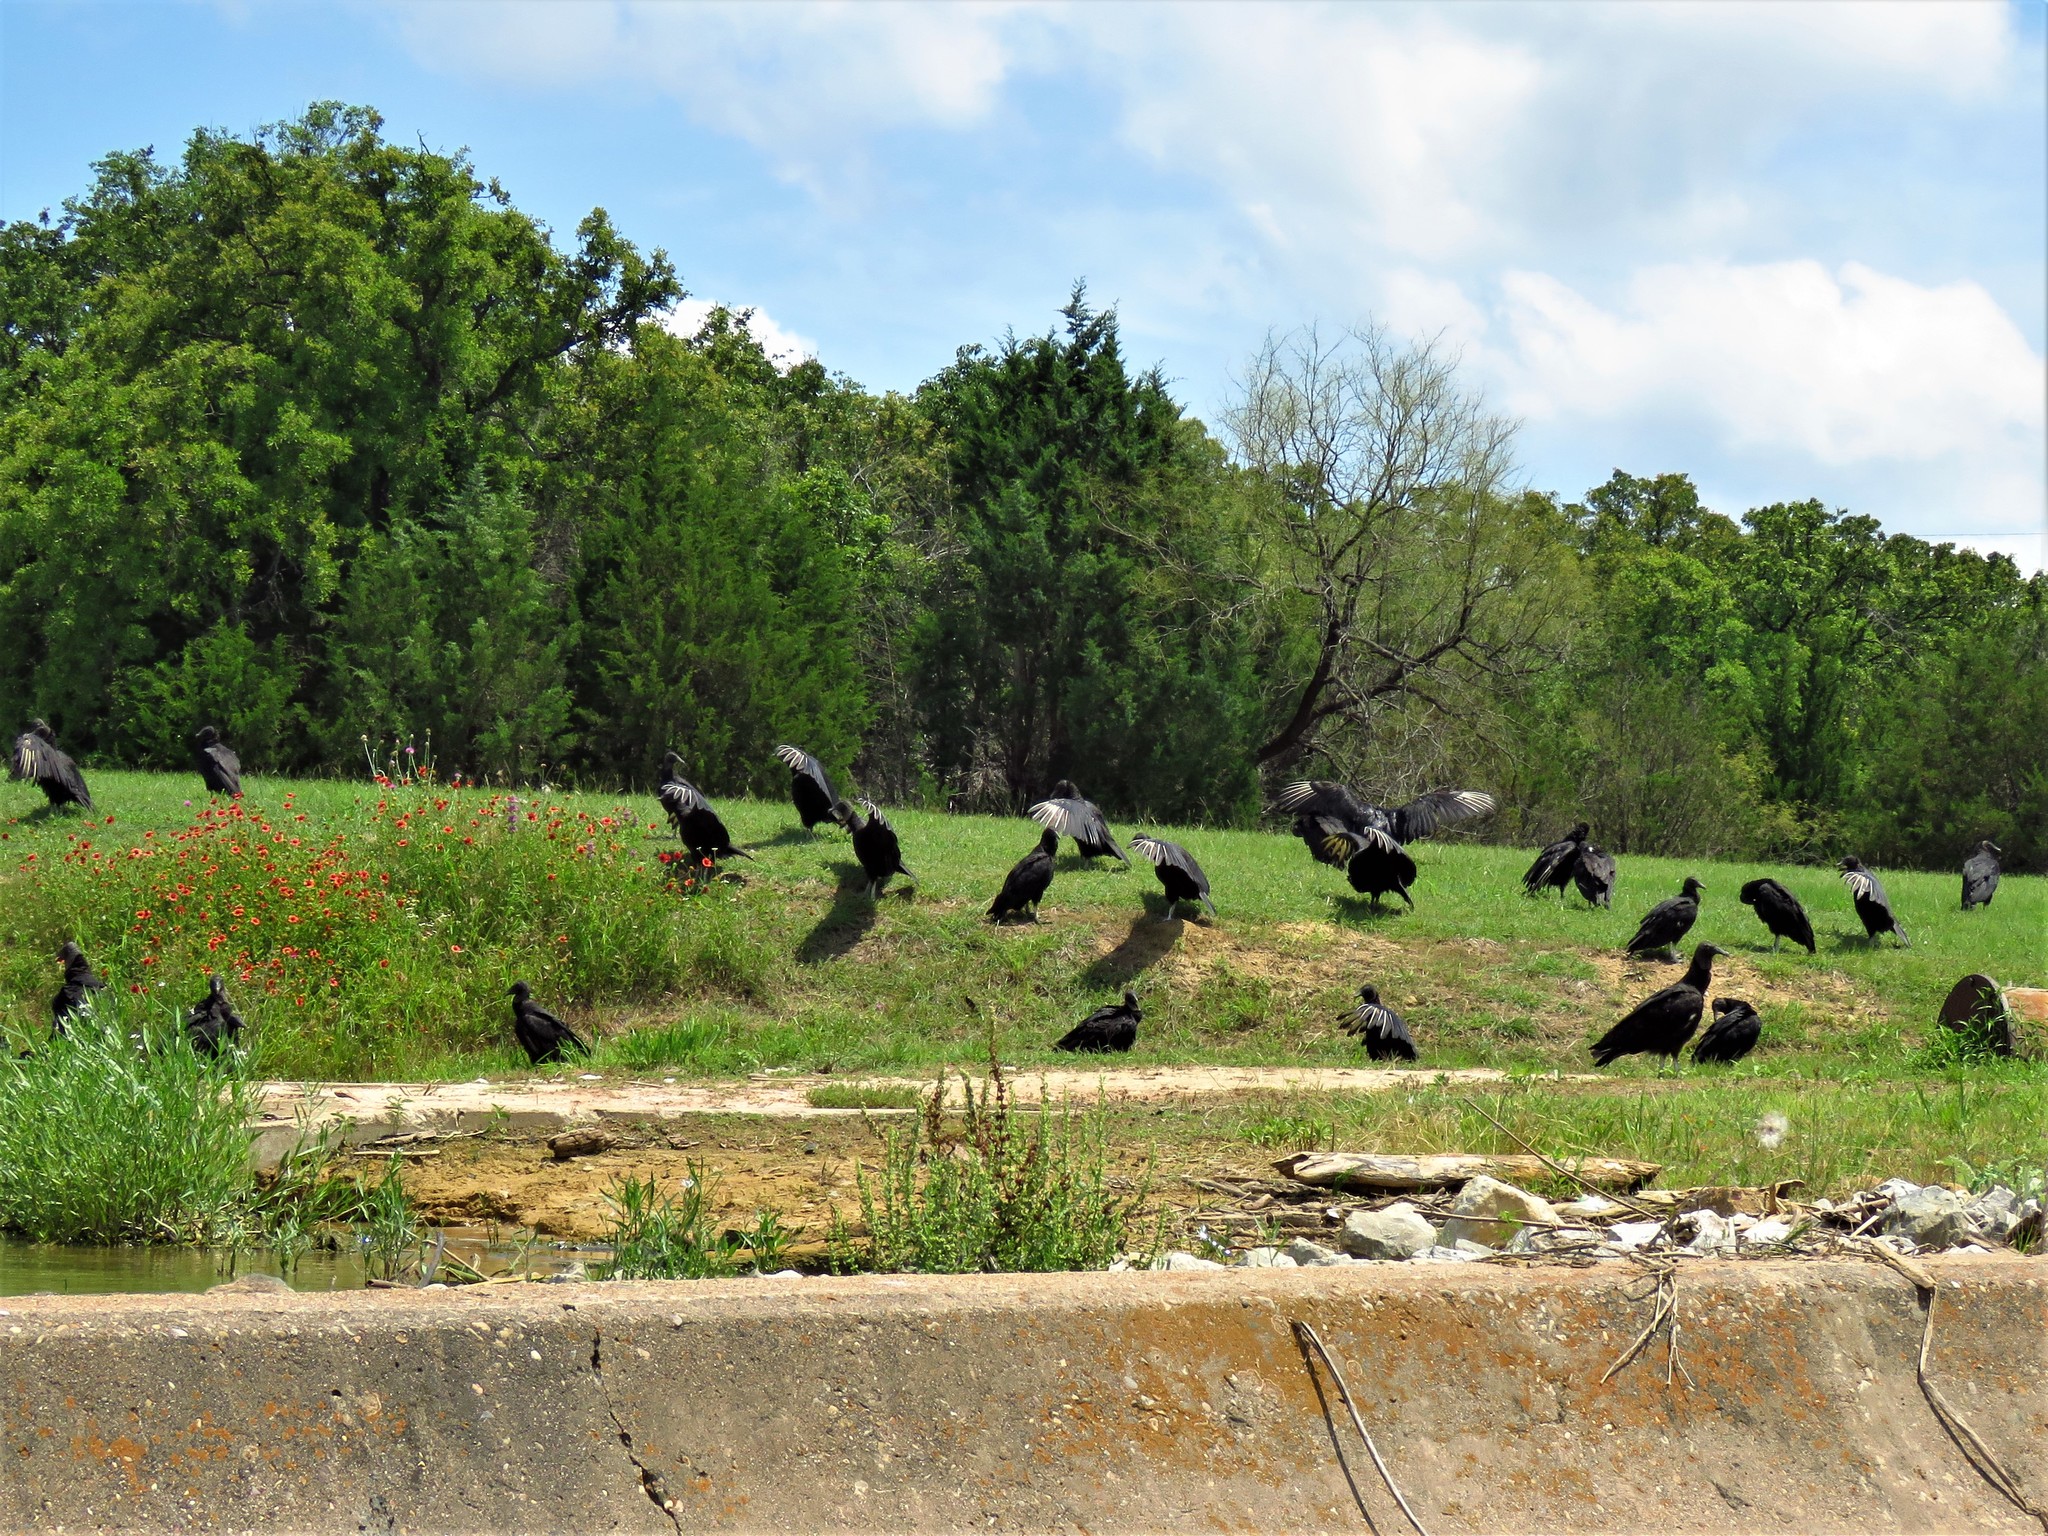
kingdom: Animalia
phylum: Chordata
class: Aves
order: Accipitriformes
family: Cathartidae
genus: Coragyps
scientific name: Coragyps atratus
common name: Black vulture
